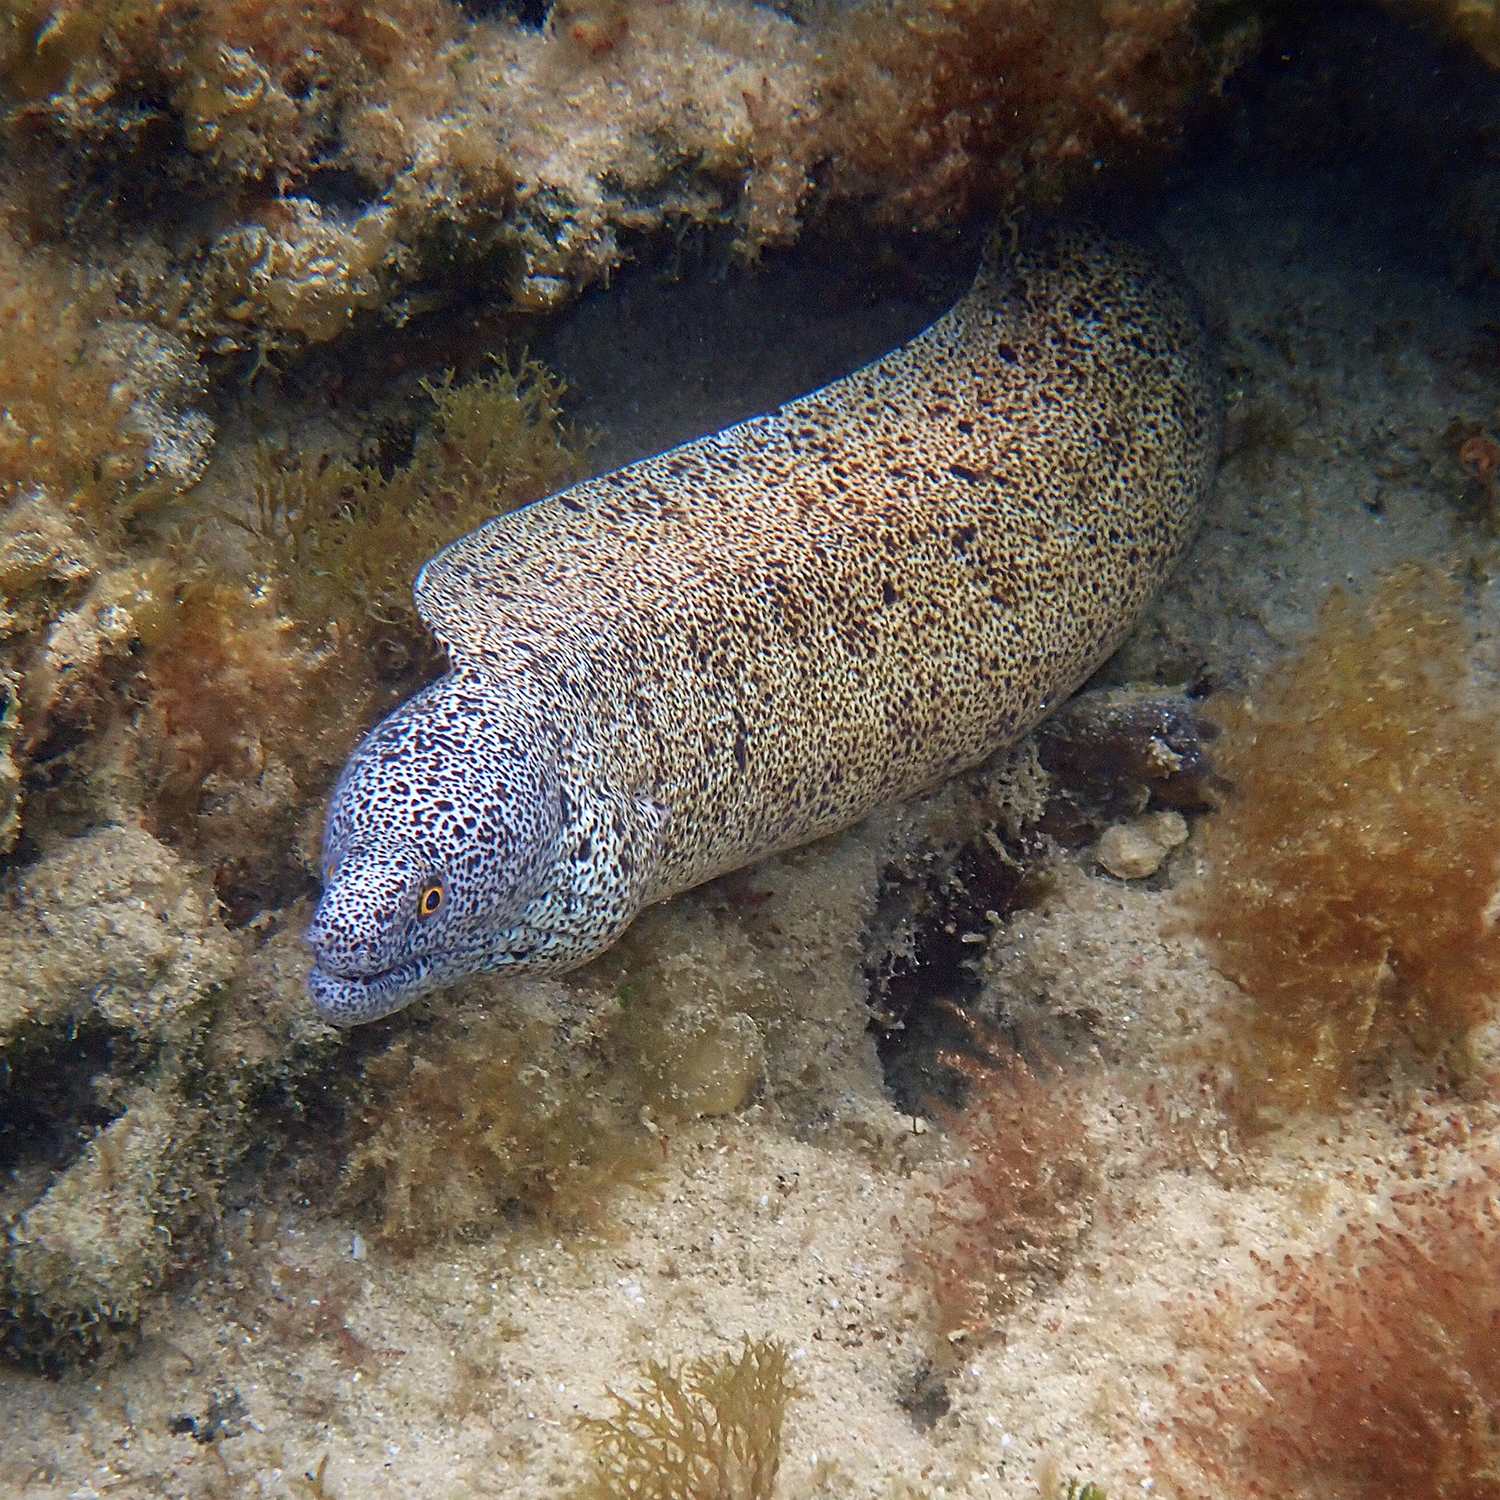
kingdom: Animalia
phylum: Chordata
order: Anguilliformes
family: Muraenidae
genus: Gymnothorax
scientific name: Gymnothorax annasona
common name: Lord howe island moray
